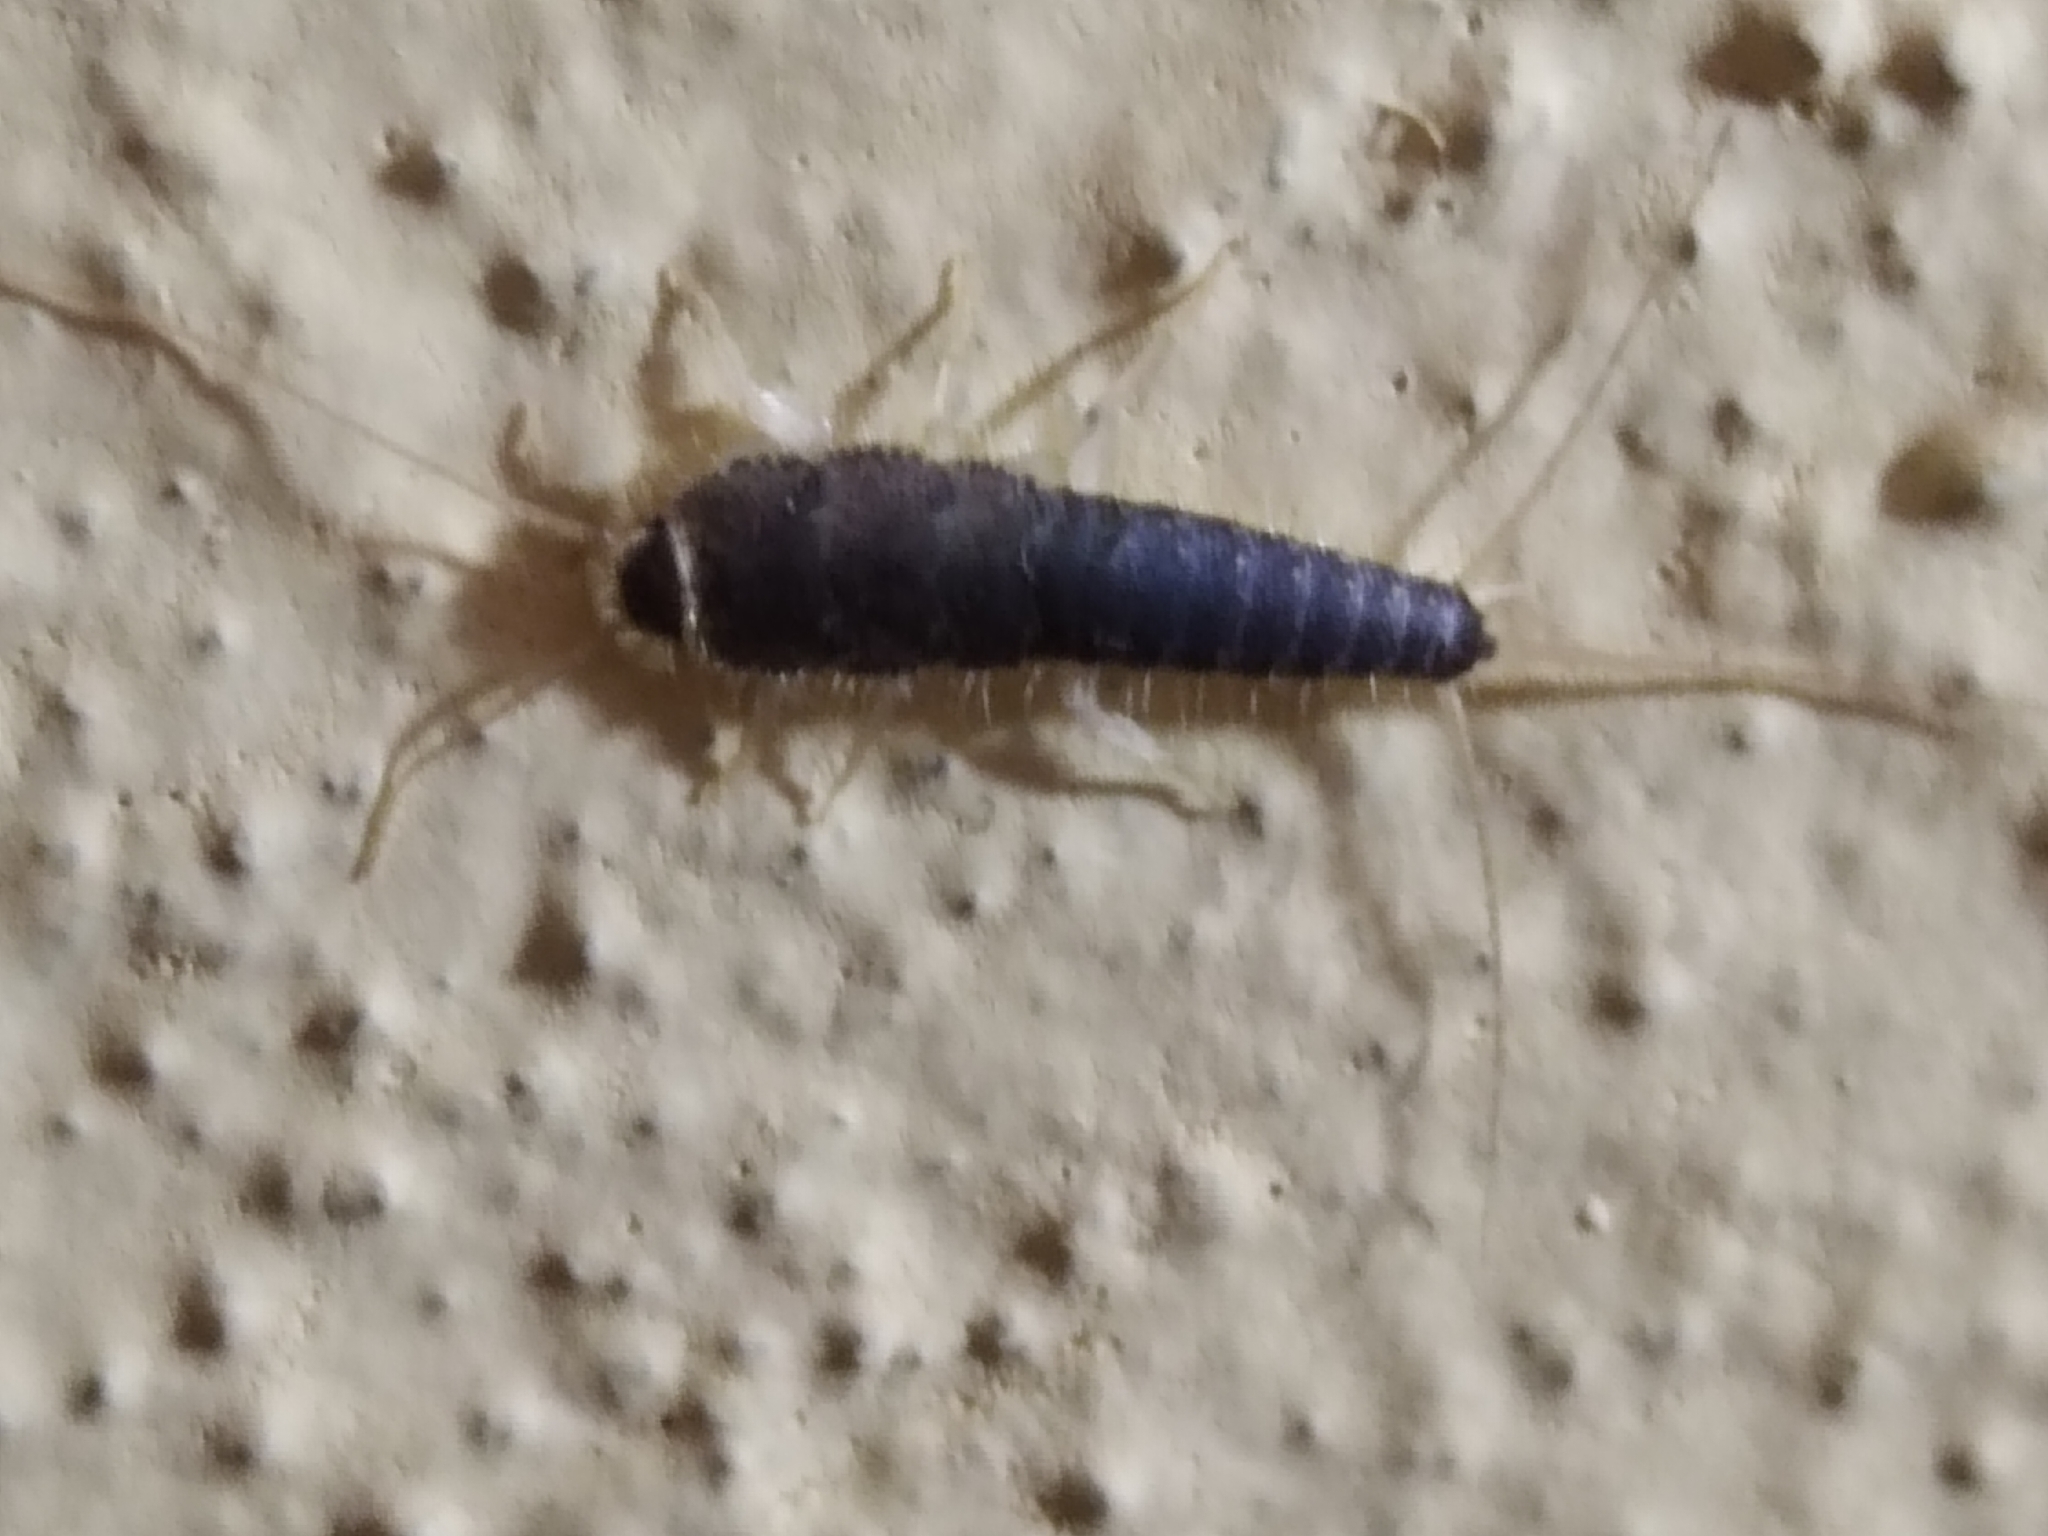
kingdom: Animalia
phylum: Arthropoda
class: Insecta
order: Zygentoma
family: Lepismatidae
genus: Ctenolepisma
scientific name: Ctenolepisma longicaudatum
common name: Silverfish
